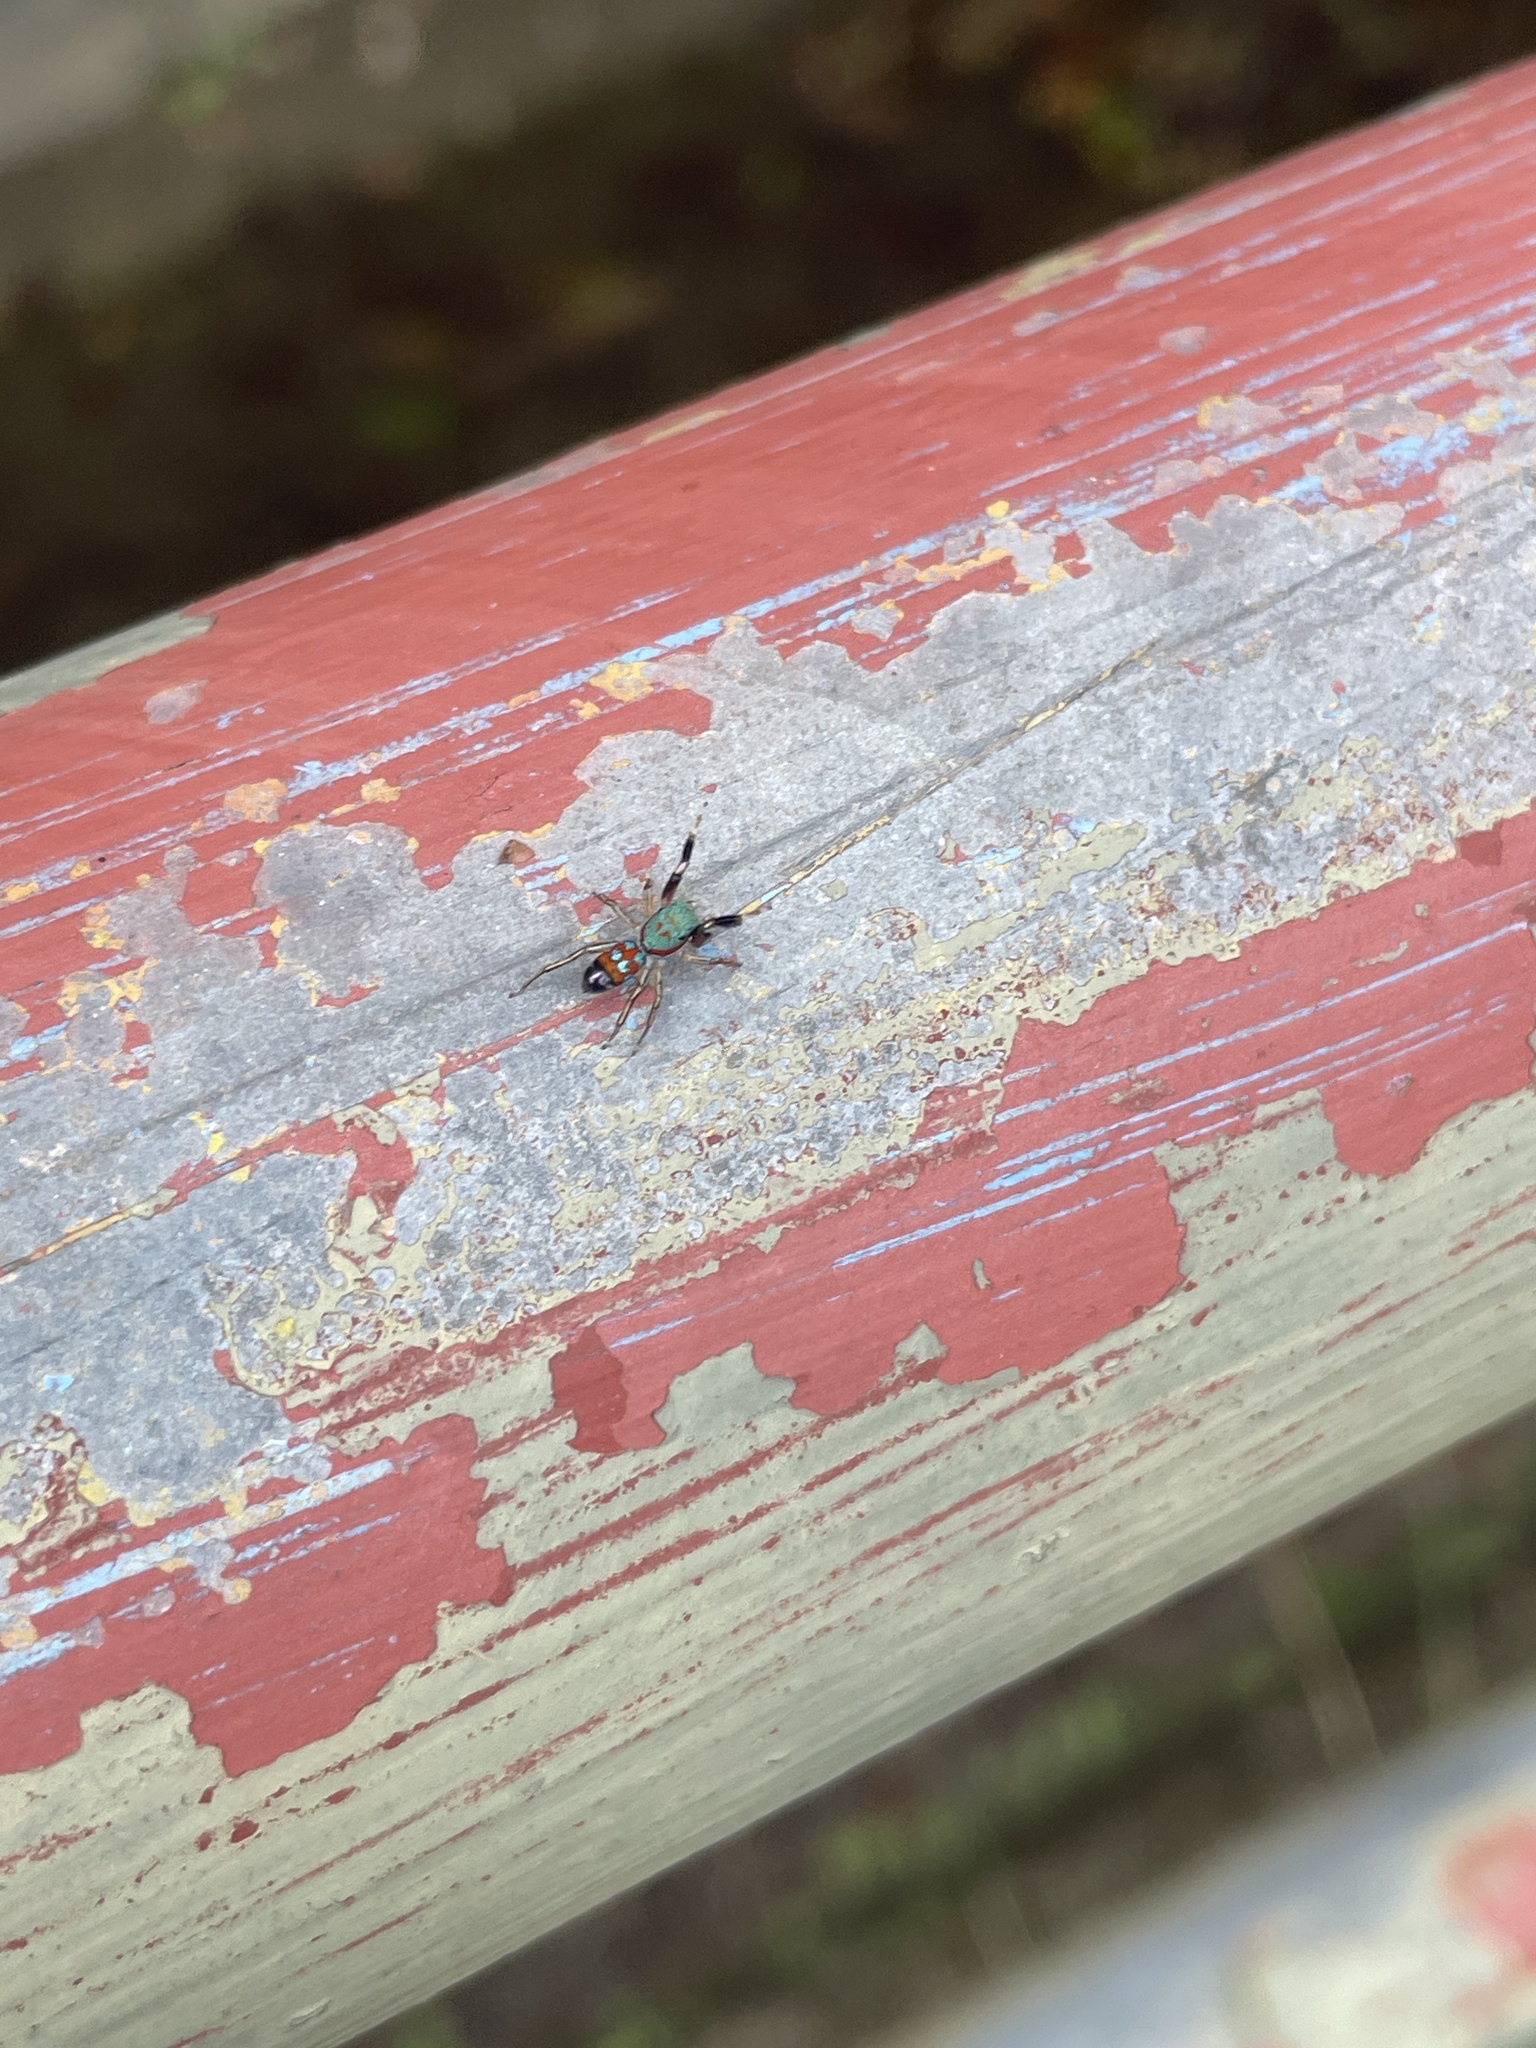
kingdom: Animalia
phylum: Arthropoda
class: Arachnida
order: Araneae
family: Salticidae
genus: Siler
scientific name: Siler collingwoodi
